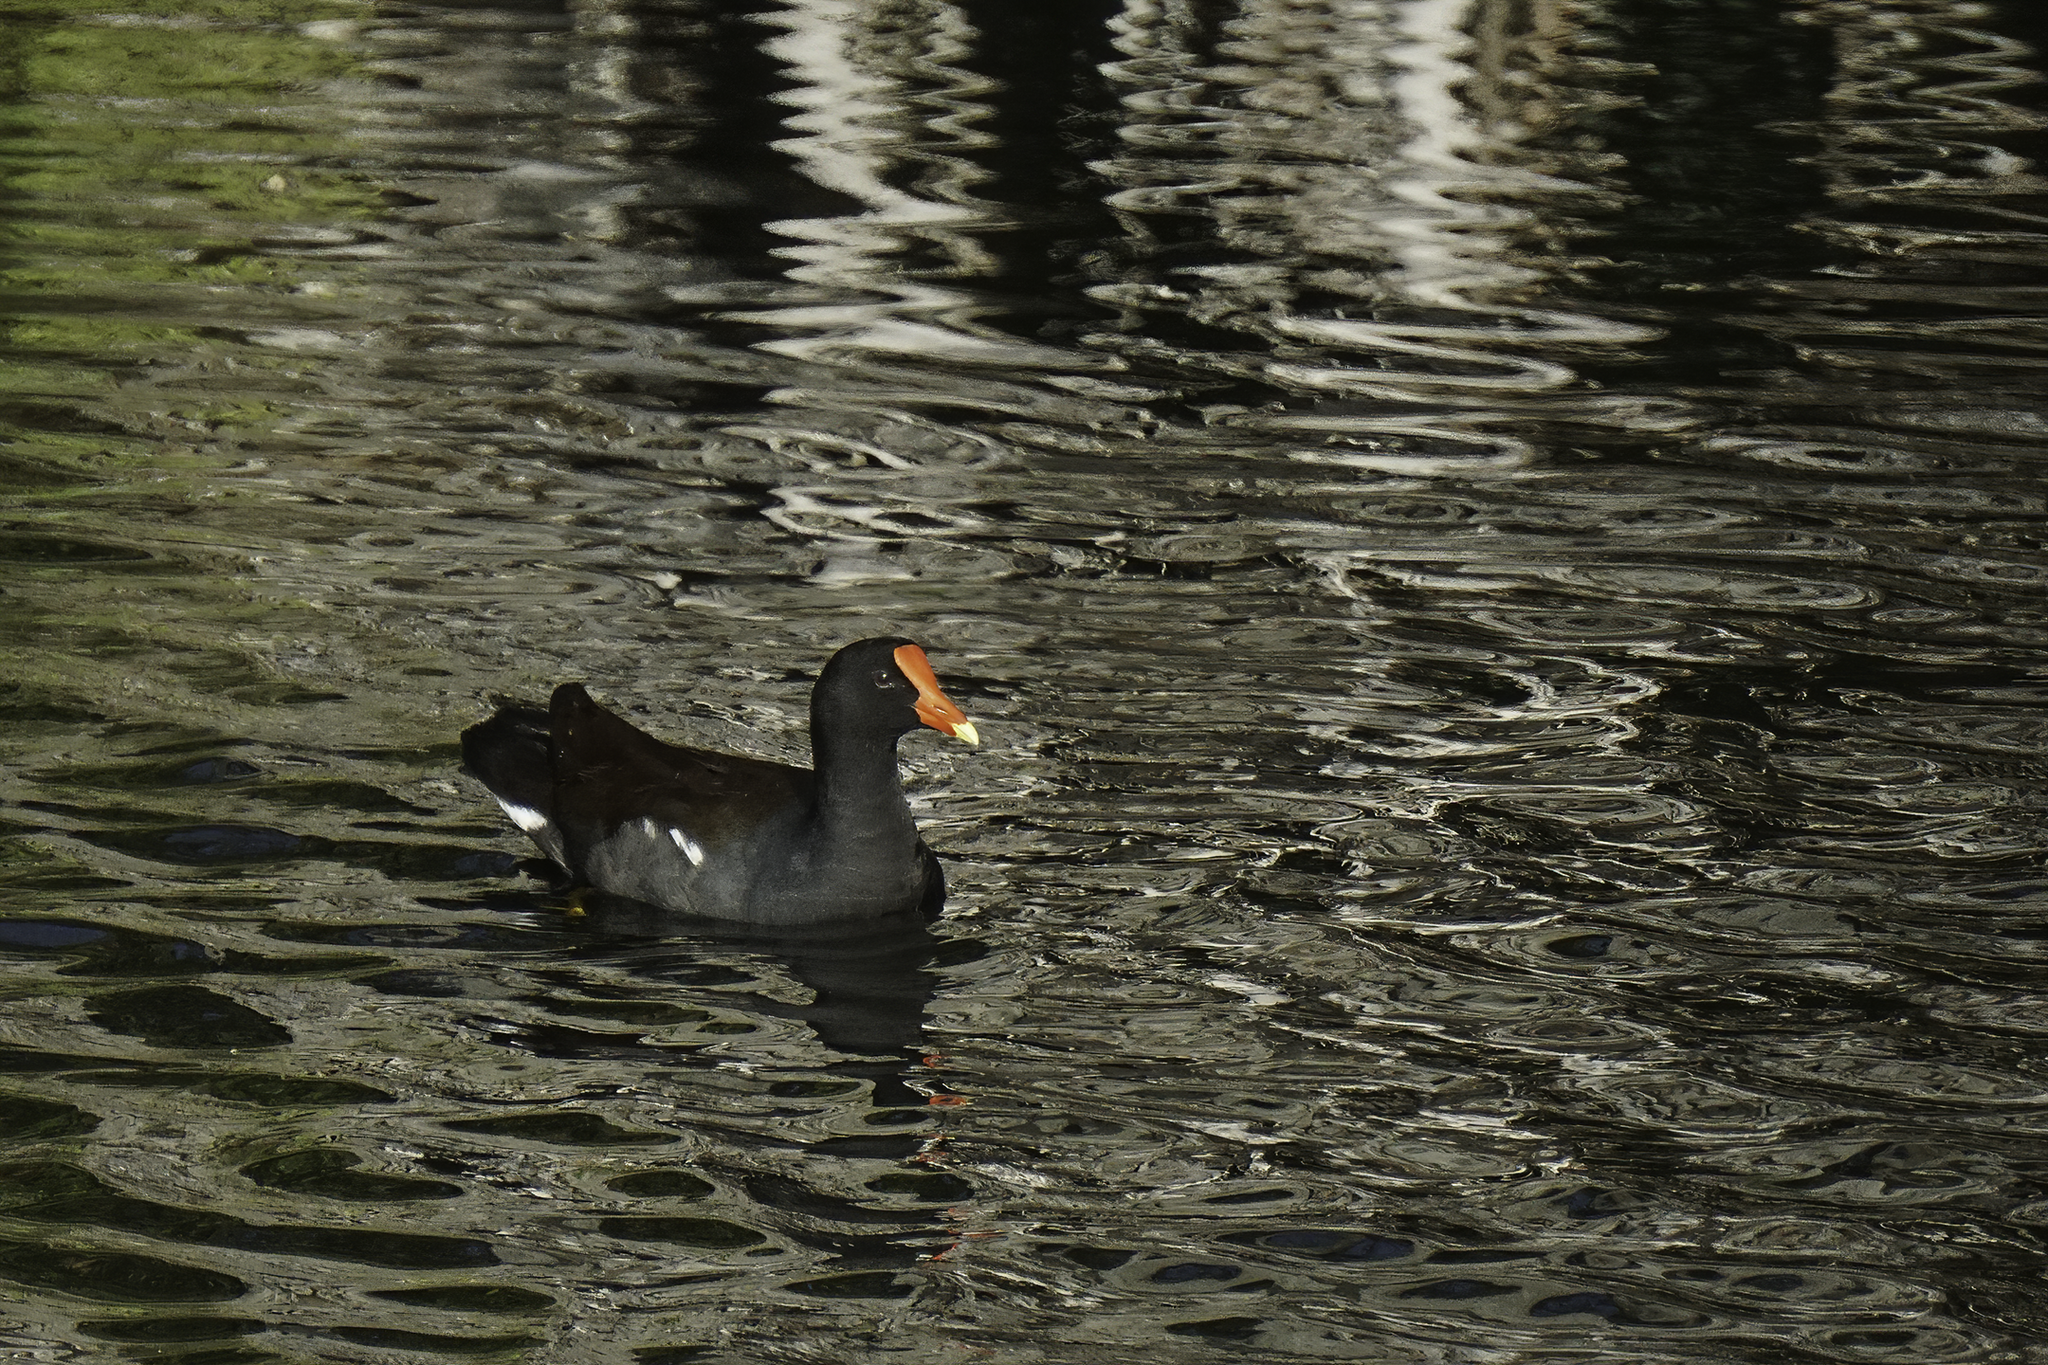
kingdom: Animalia
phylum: Chordata
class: Aves
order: Gruiformes
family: Rallidae
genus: Gallinula
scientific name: Gallinula chloropus
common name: Common moorhen
